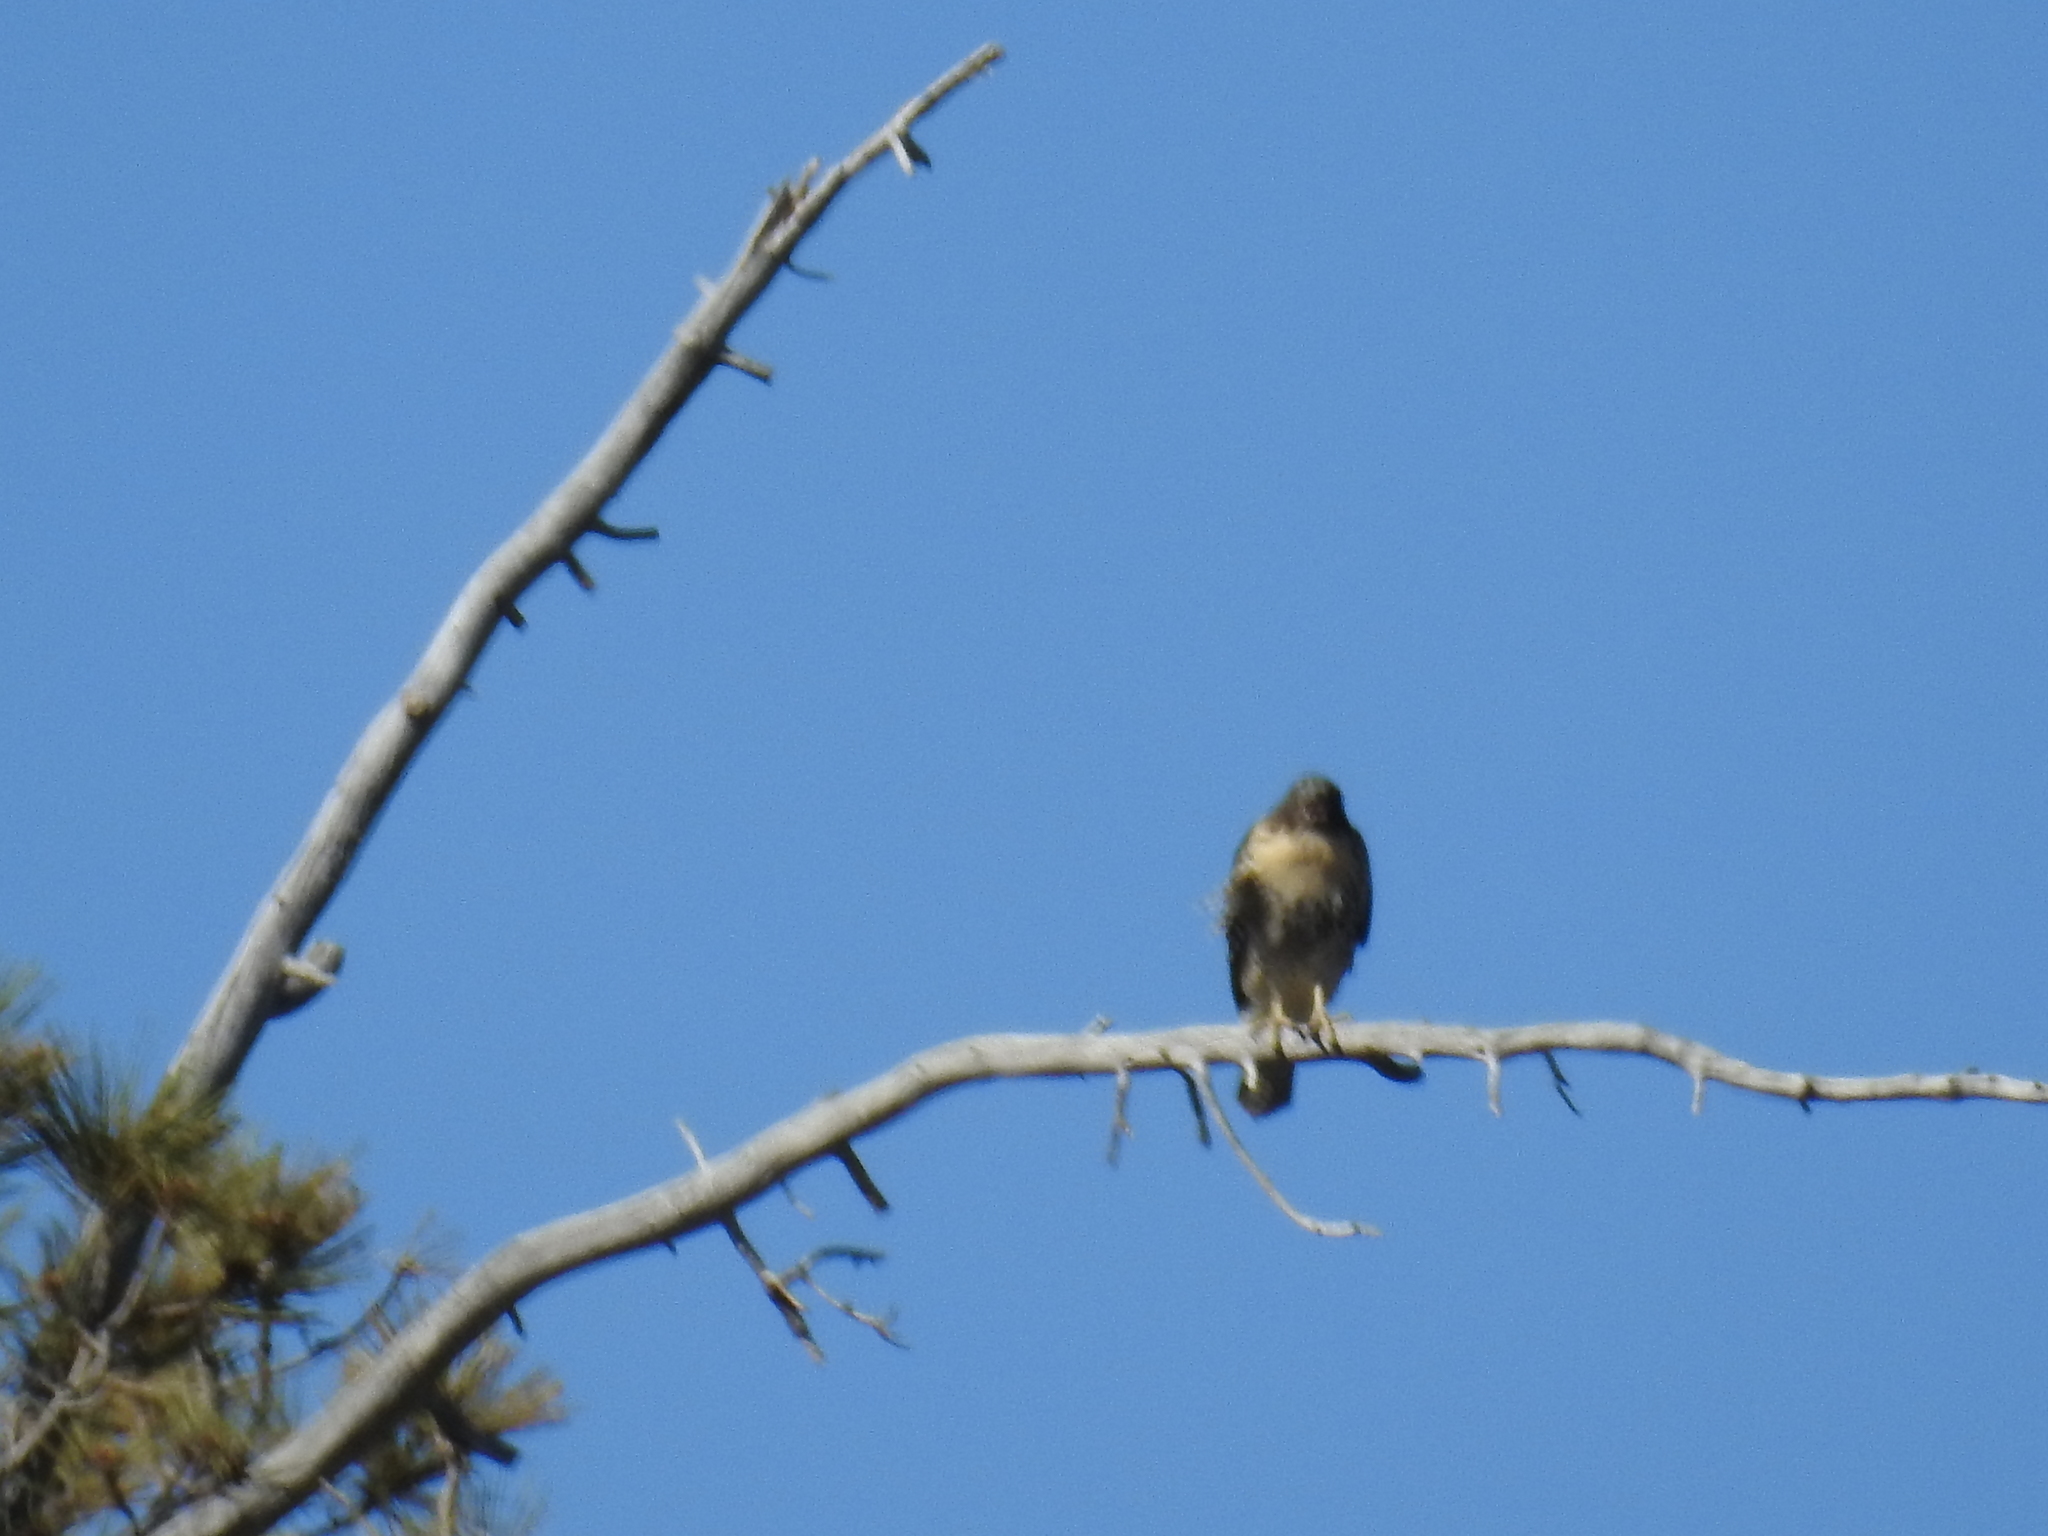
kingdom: Animalia
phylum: Chordata
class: Aves
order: Accipitriformes
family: Accipitridae
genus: Buteo
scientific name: Buteo jamaicensis
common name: Red-tailed hawk
